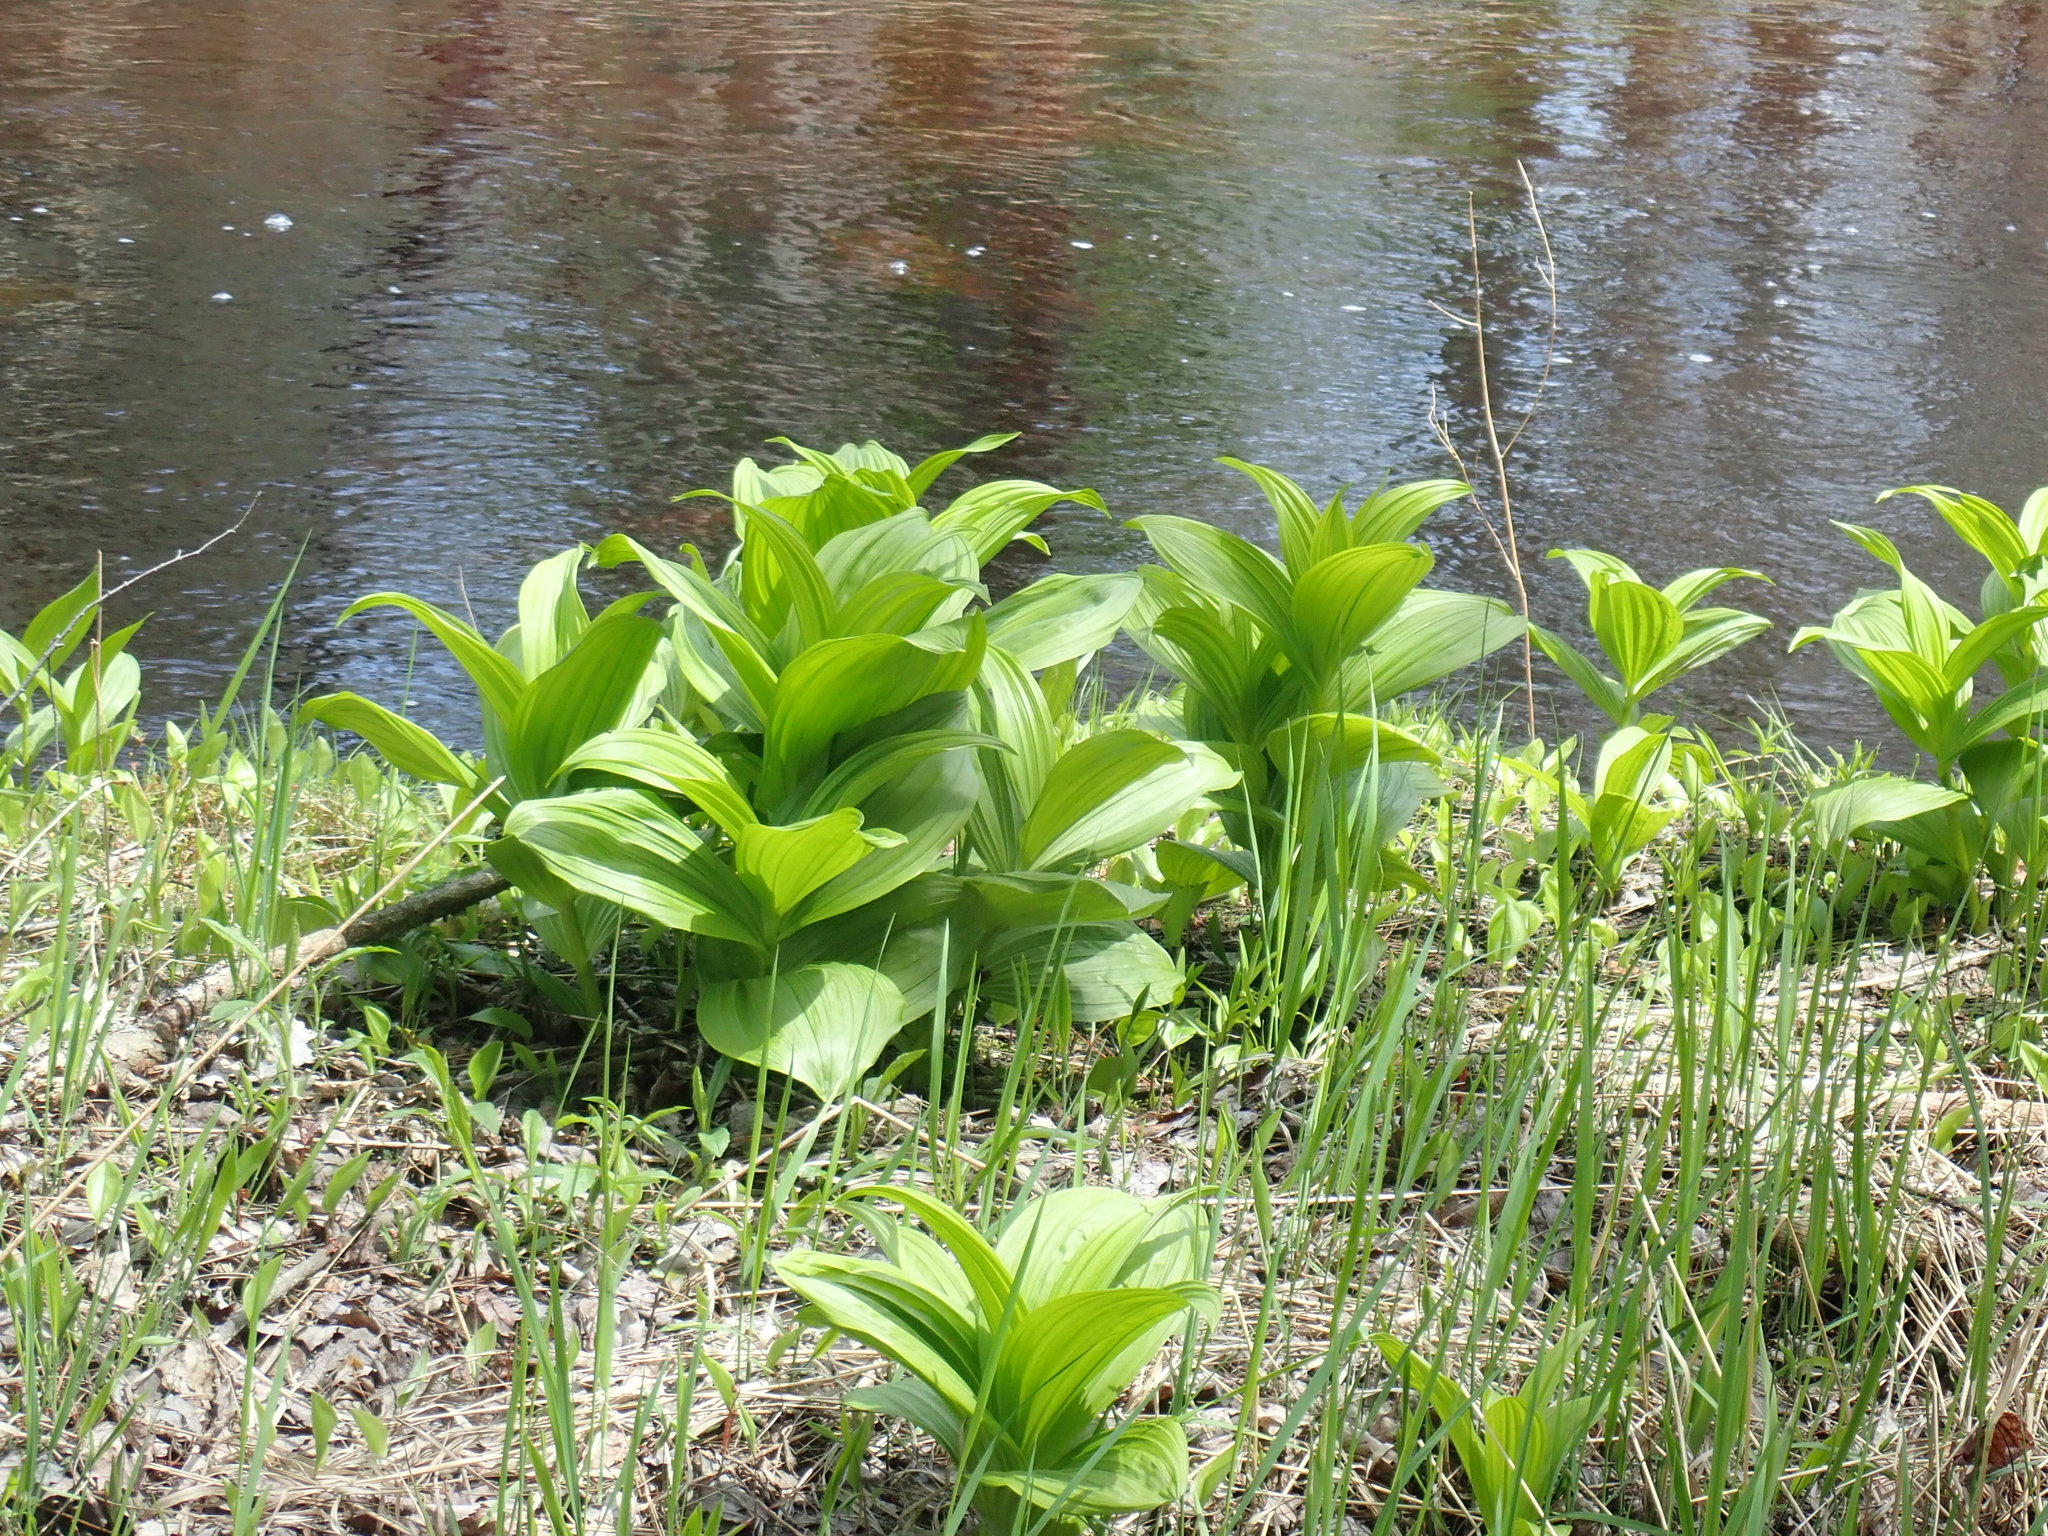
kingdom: Plantae
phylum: Tracheophyta
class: Liliopsida
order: Liliales
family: Melanthiaceae
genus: Veratrum
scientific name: Veratrum viride
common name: American false hellebore
